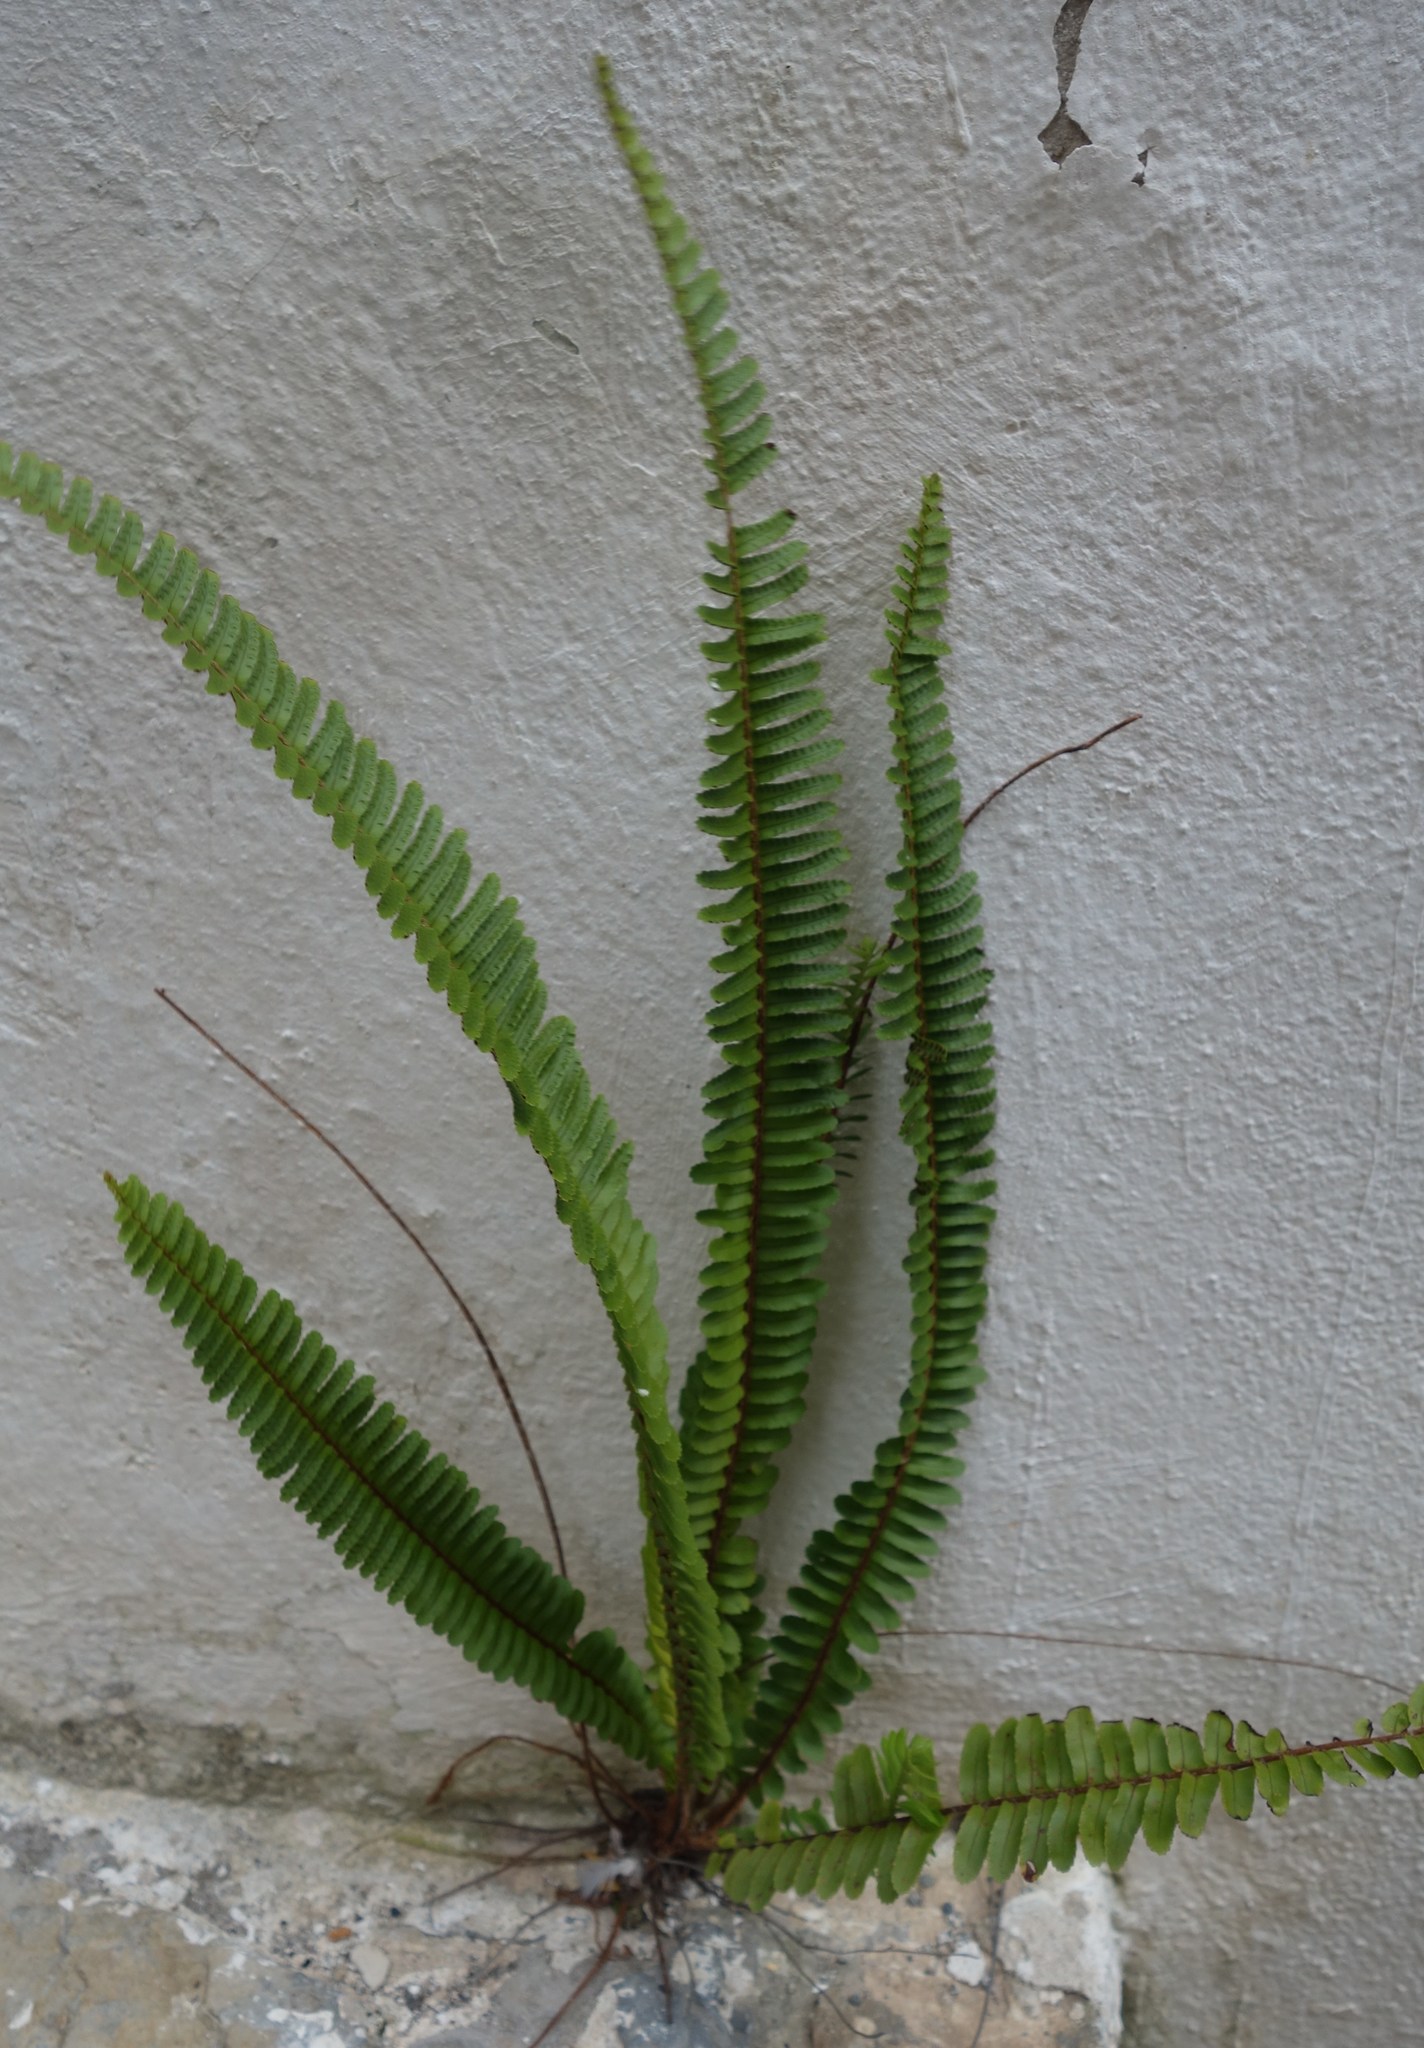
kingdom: Plantae
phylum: Tracheophyta
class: Polypodiopsida
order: Polypodiales
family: Nephrolepidaceae
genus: Nephrolepis
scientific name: Nephrolepis cordifolia
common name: Narrow swordfern
